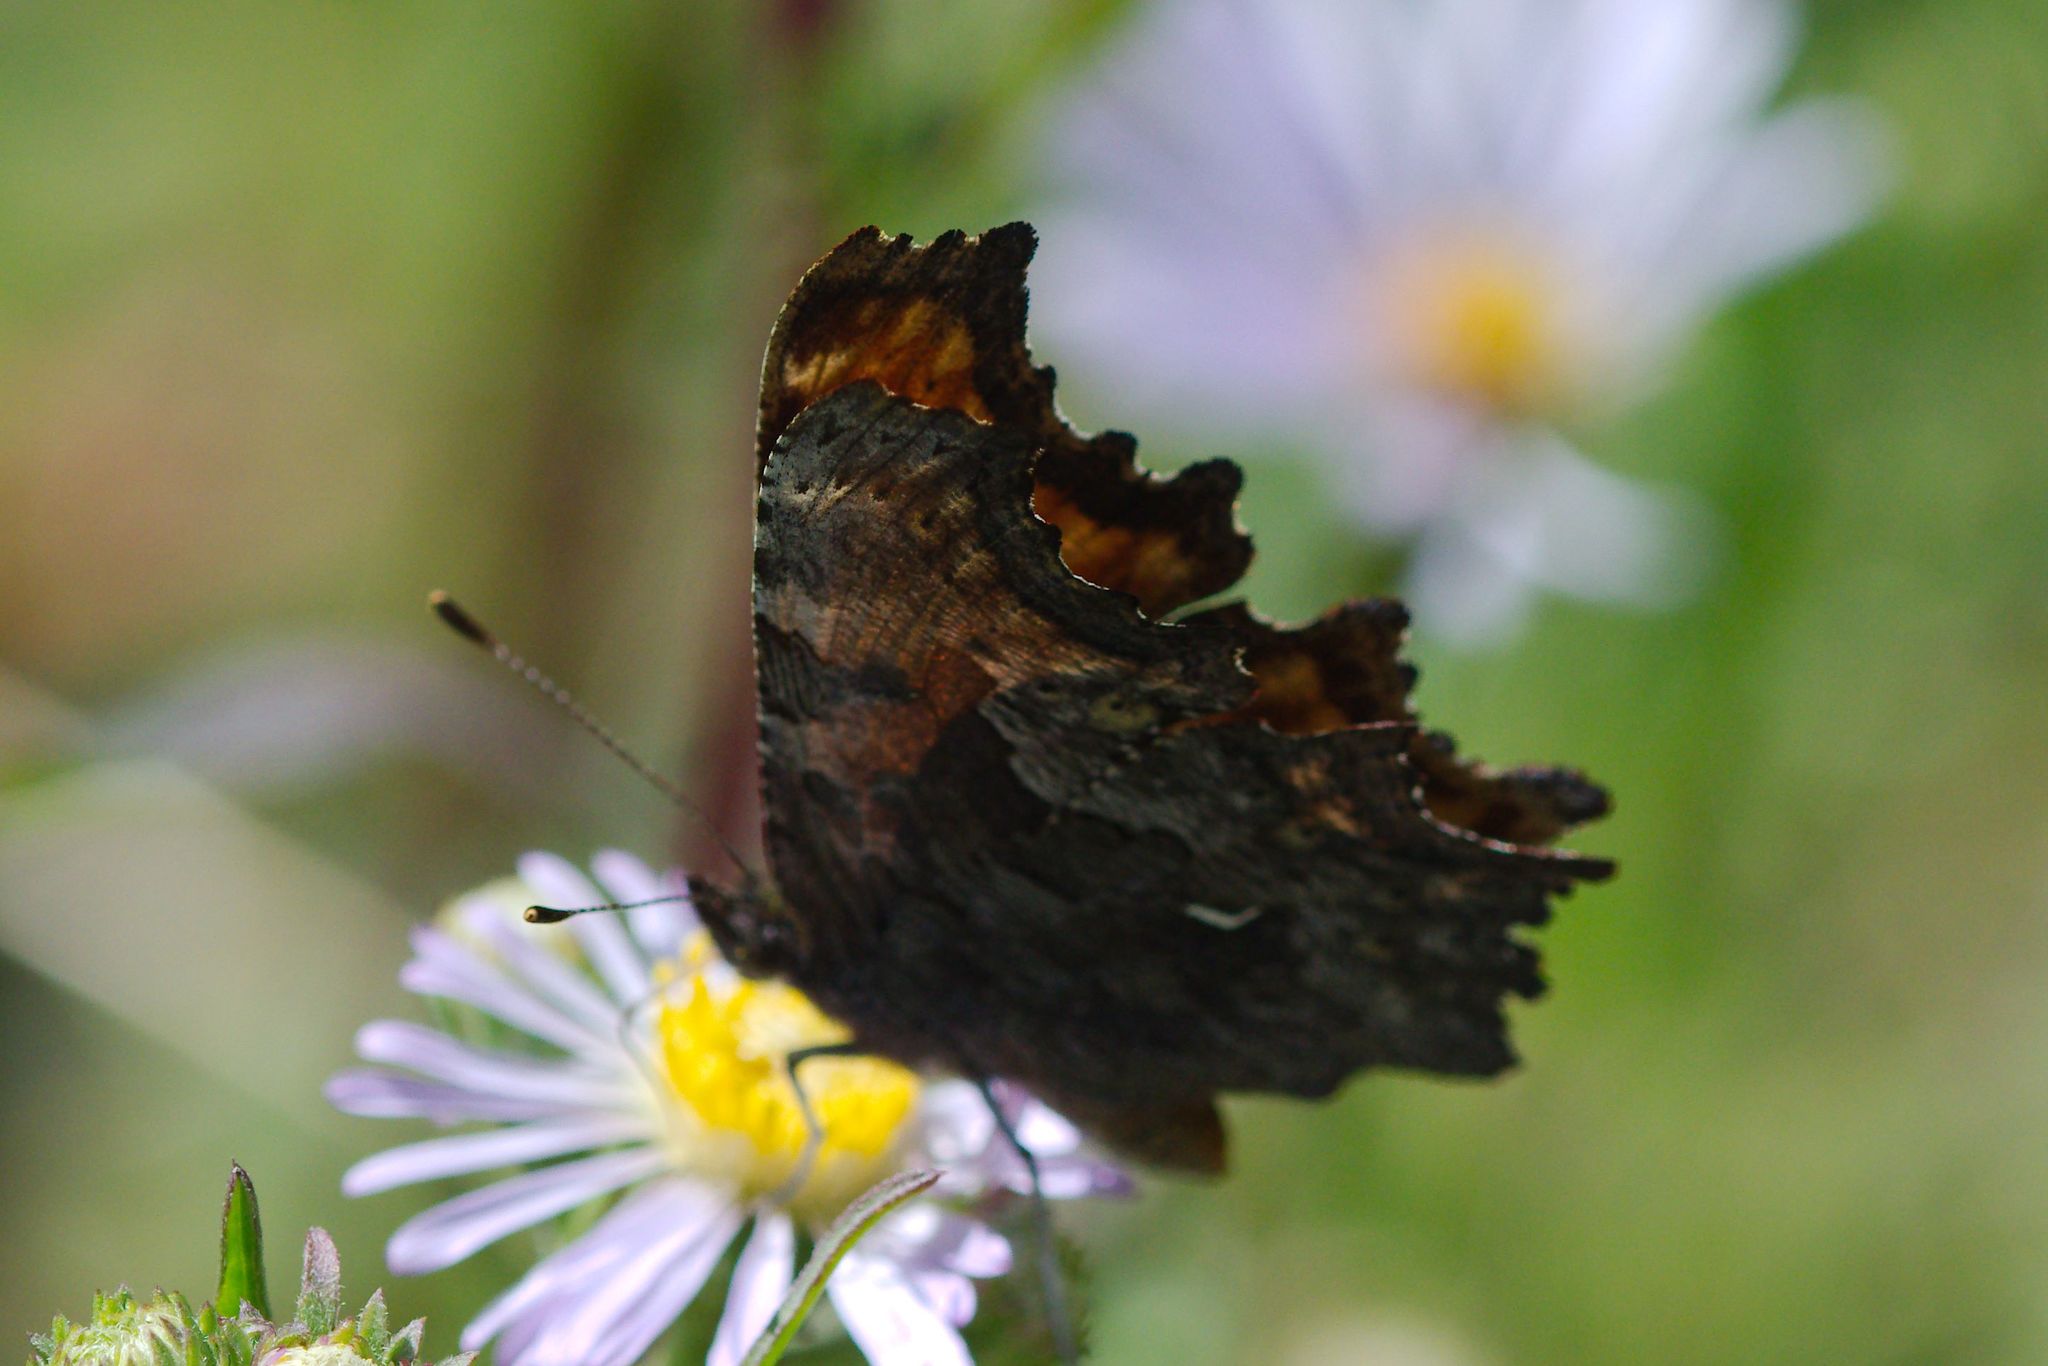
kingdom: Animalia
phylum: Arthropoda
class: Insecta
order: Lepidoptera
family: Nymphalidae
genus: Polygonia
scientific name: Polygonia gracilis
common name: Hoary comma
